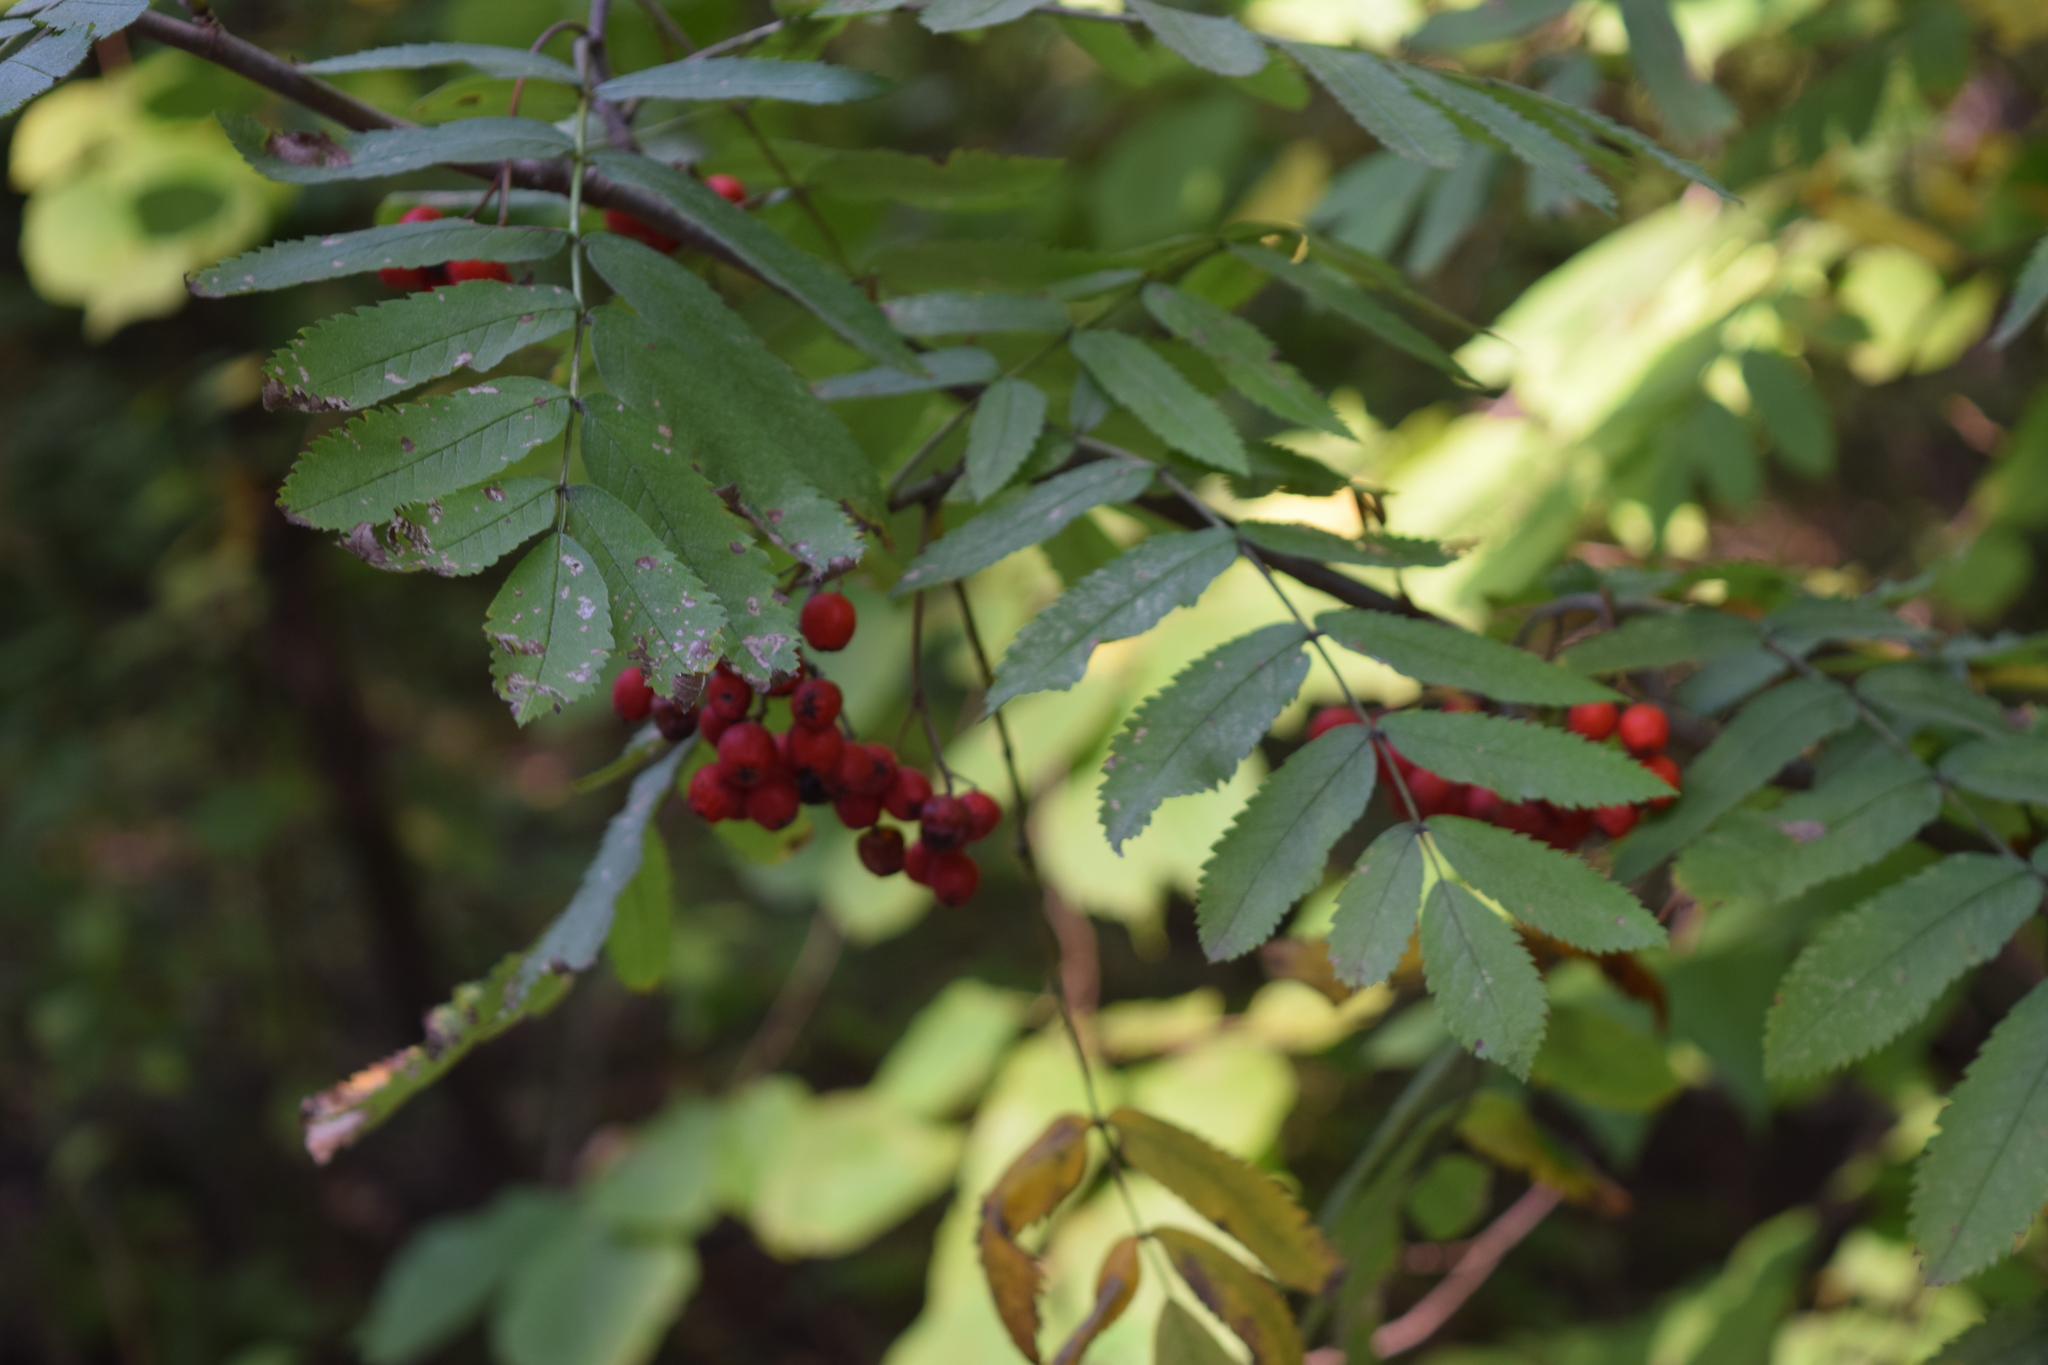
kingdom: Plantae
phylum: Tracheophyta
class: Magnoliopsida
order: Rosales
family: Rosaceae
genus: Sorbus
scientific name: Sorbus aucuparia
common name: Rowan
